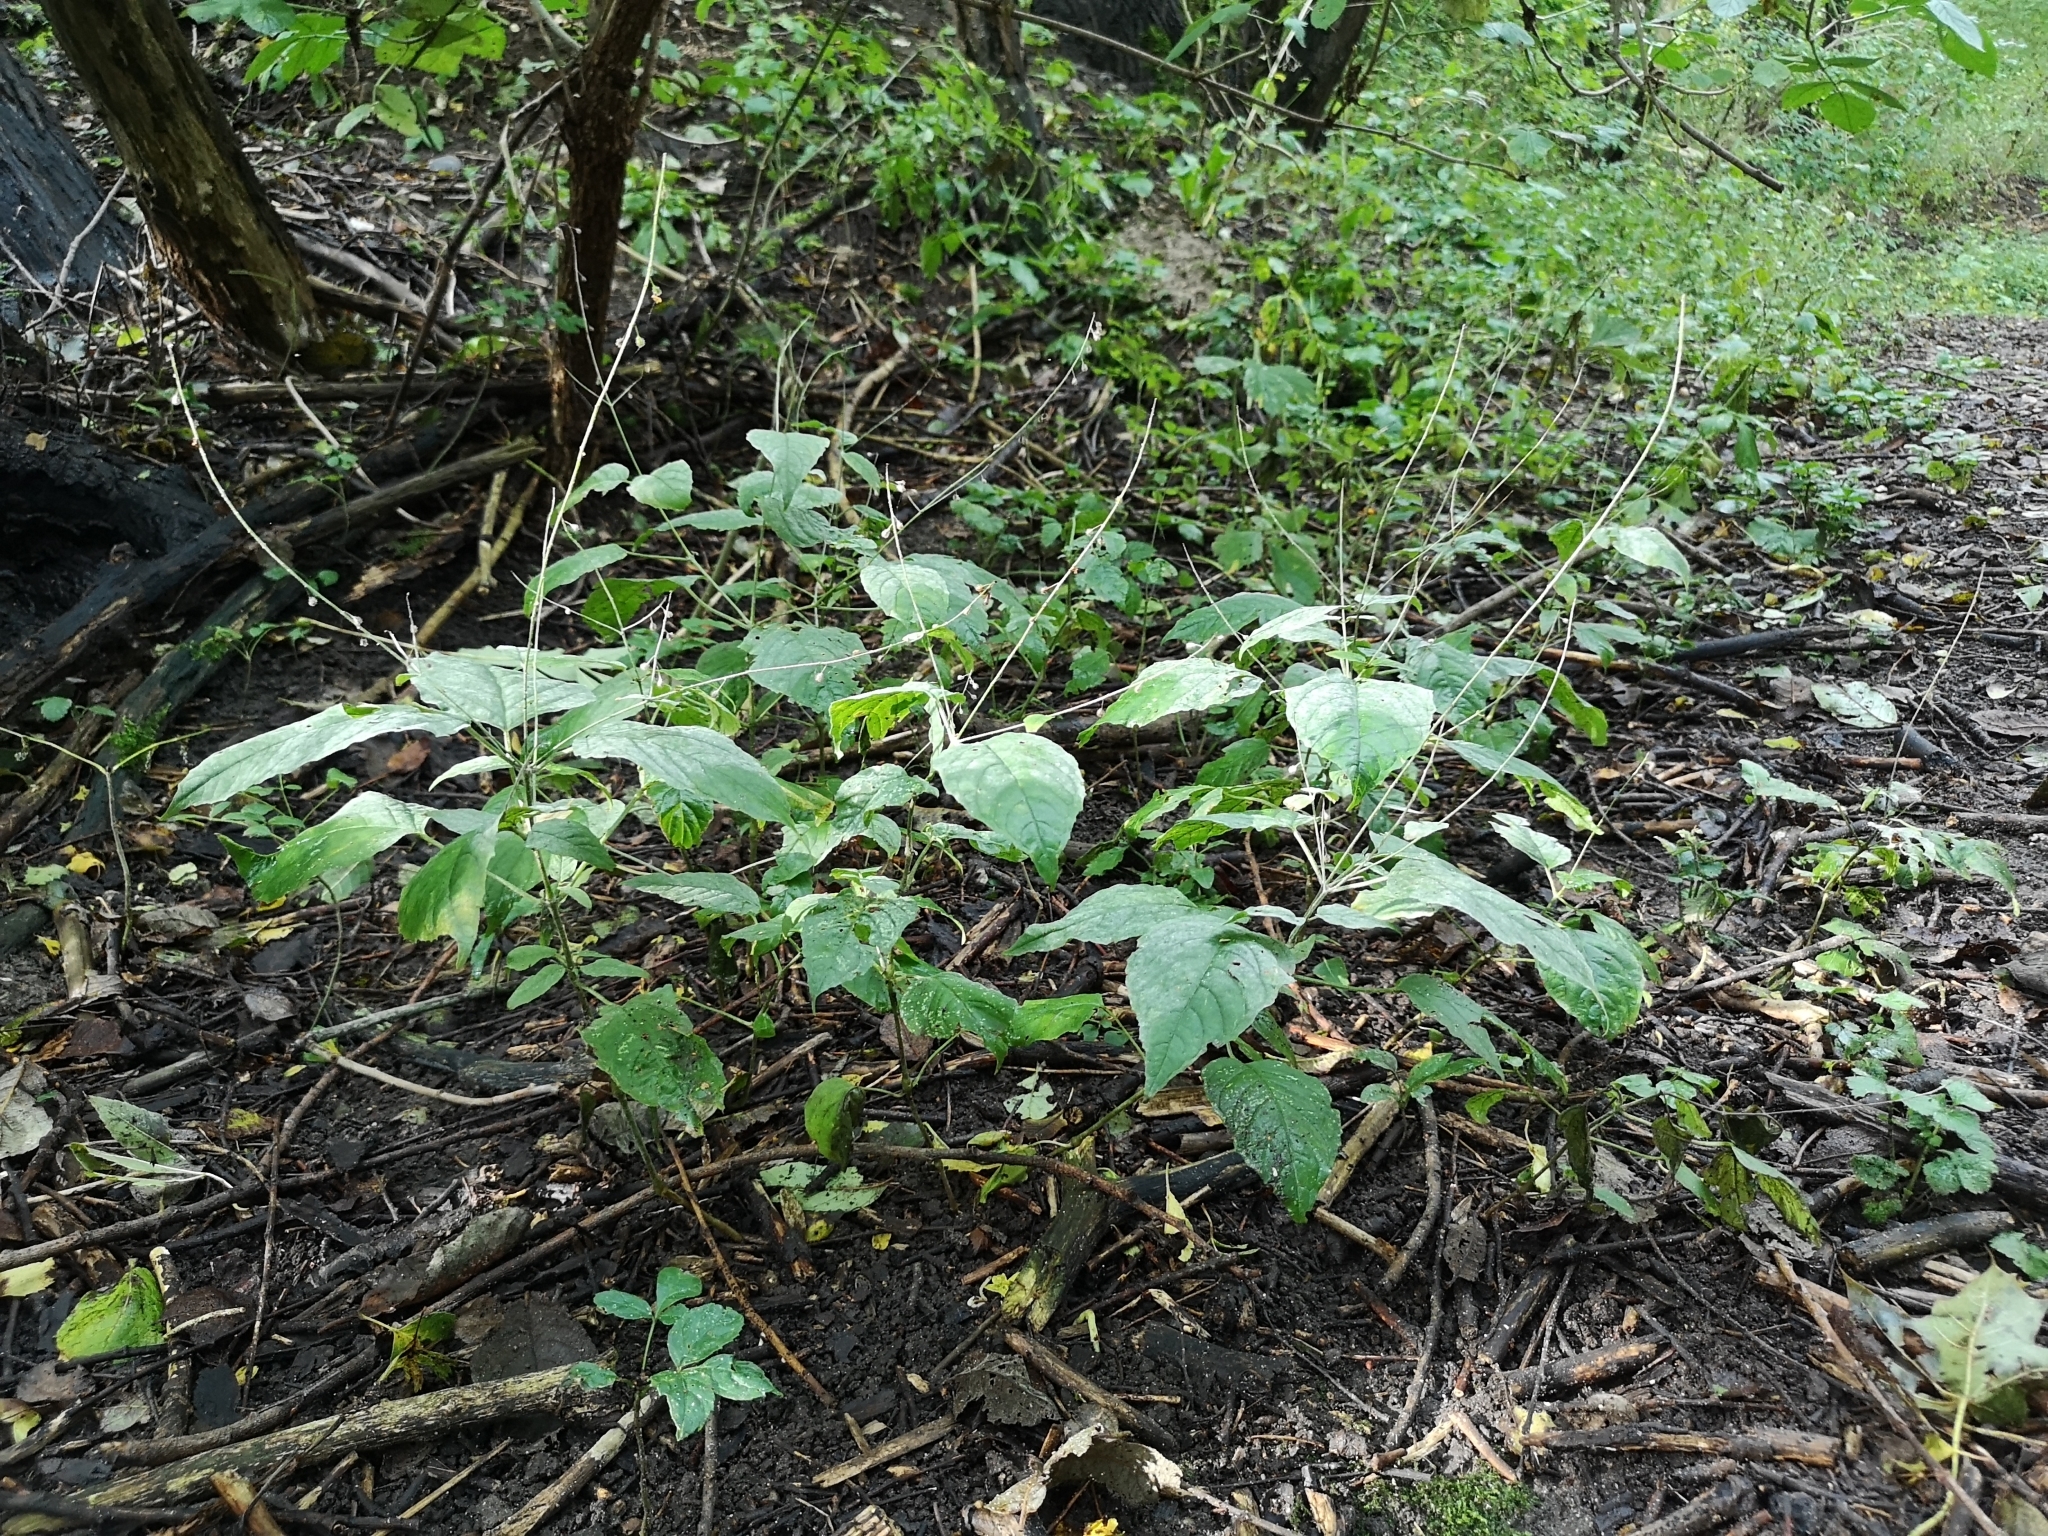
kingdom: Plantae
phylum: Tracheophyta
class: Magnoliopsida
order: Myrtales
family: Onagraceae
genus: Circaea
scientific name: Circaea lutetiana
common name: Enchanter's-nightshade
